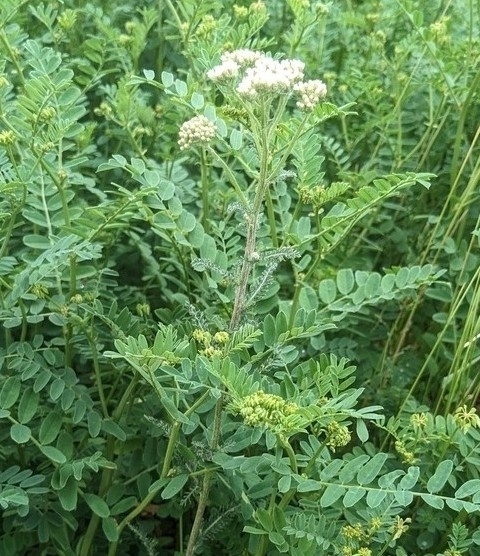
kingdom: Plantae
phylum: Tracheophyta
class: Magnoliopsida
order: Asterales
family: Asteraceae
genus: Achillea
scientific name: Achillea millefolium
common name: Yarrow
